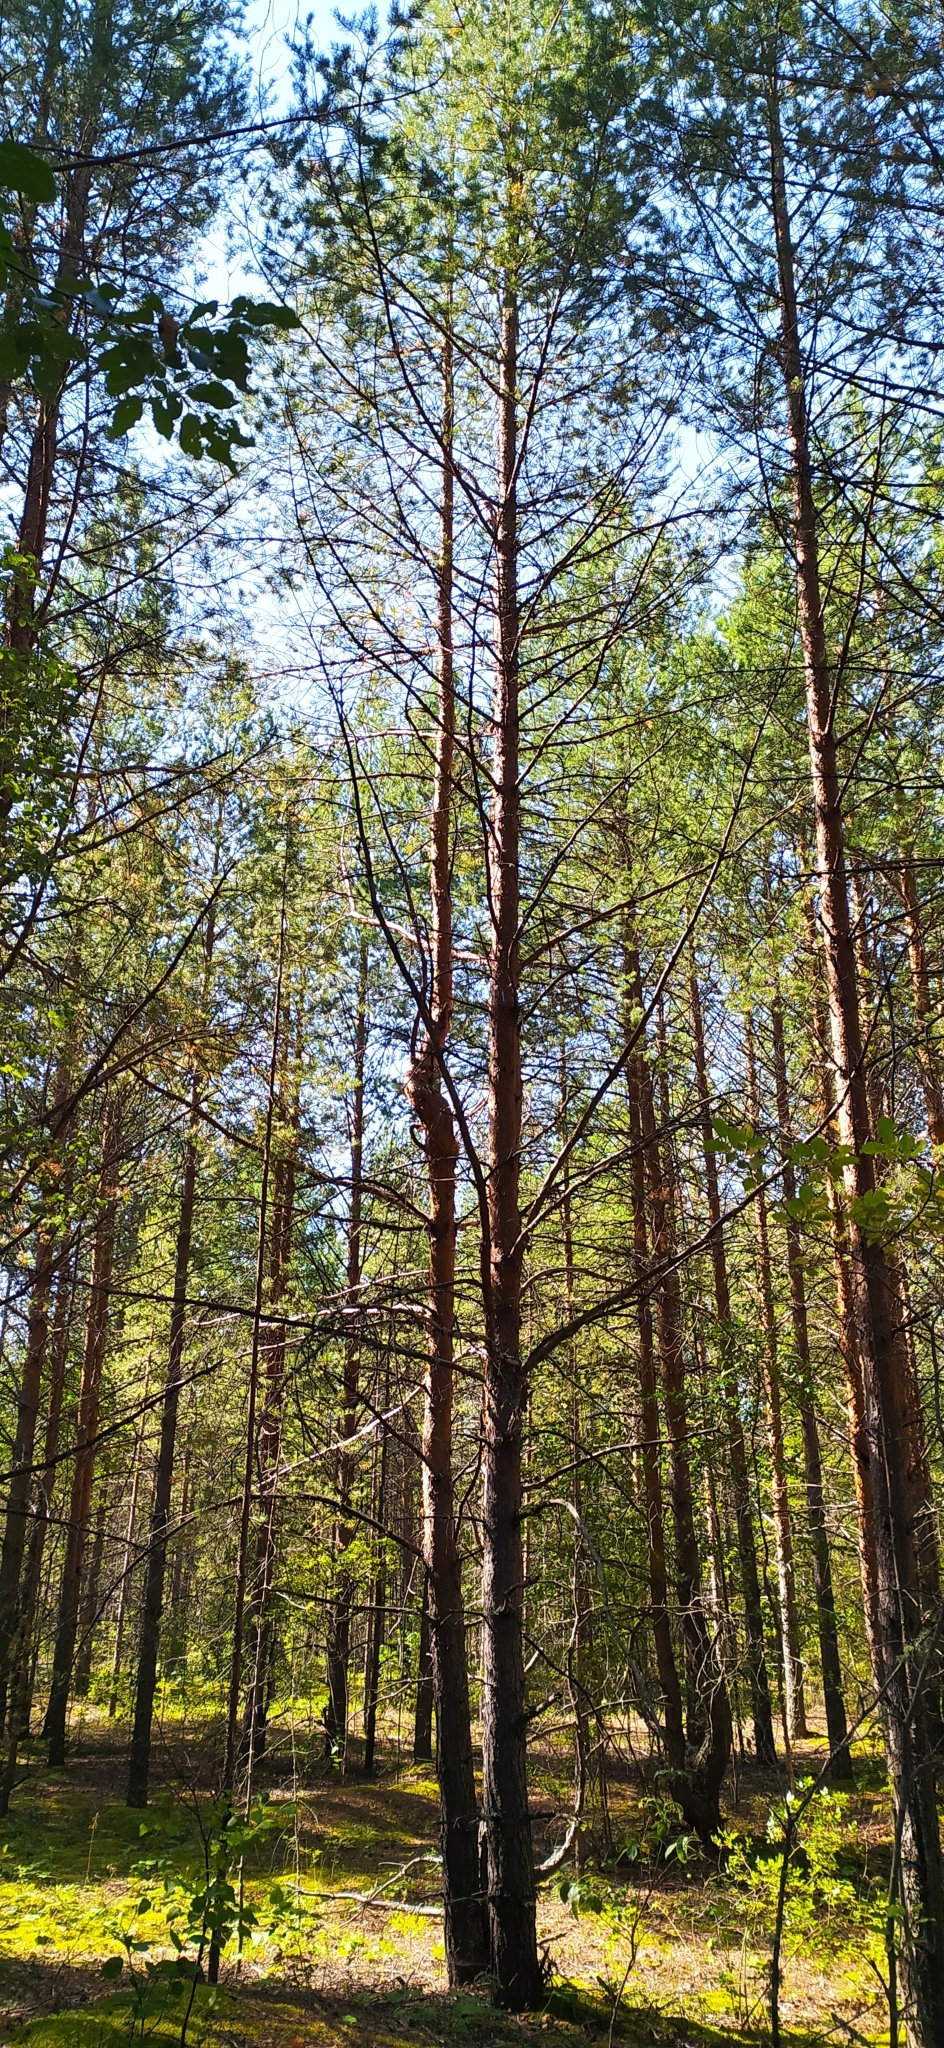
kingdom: Plantae
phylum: Tracheophyta
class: Pinopsida
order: Pinales
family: Pinaceae
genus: Pinus
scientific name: Pinus sylvestris
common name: Scots pine
